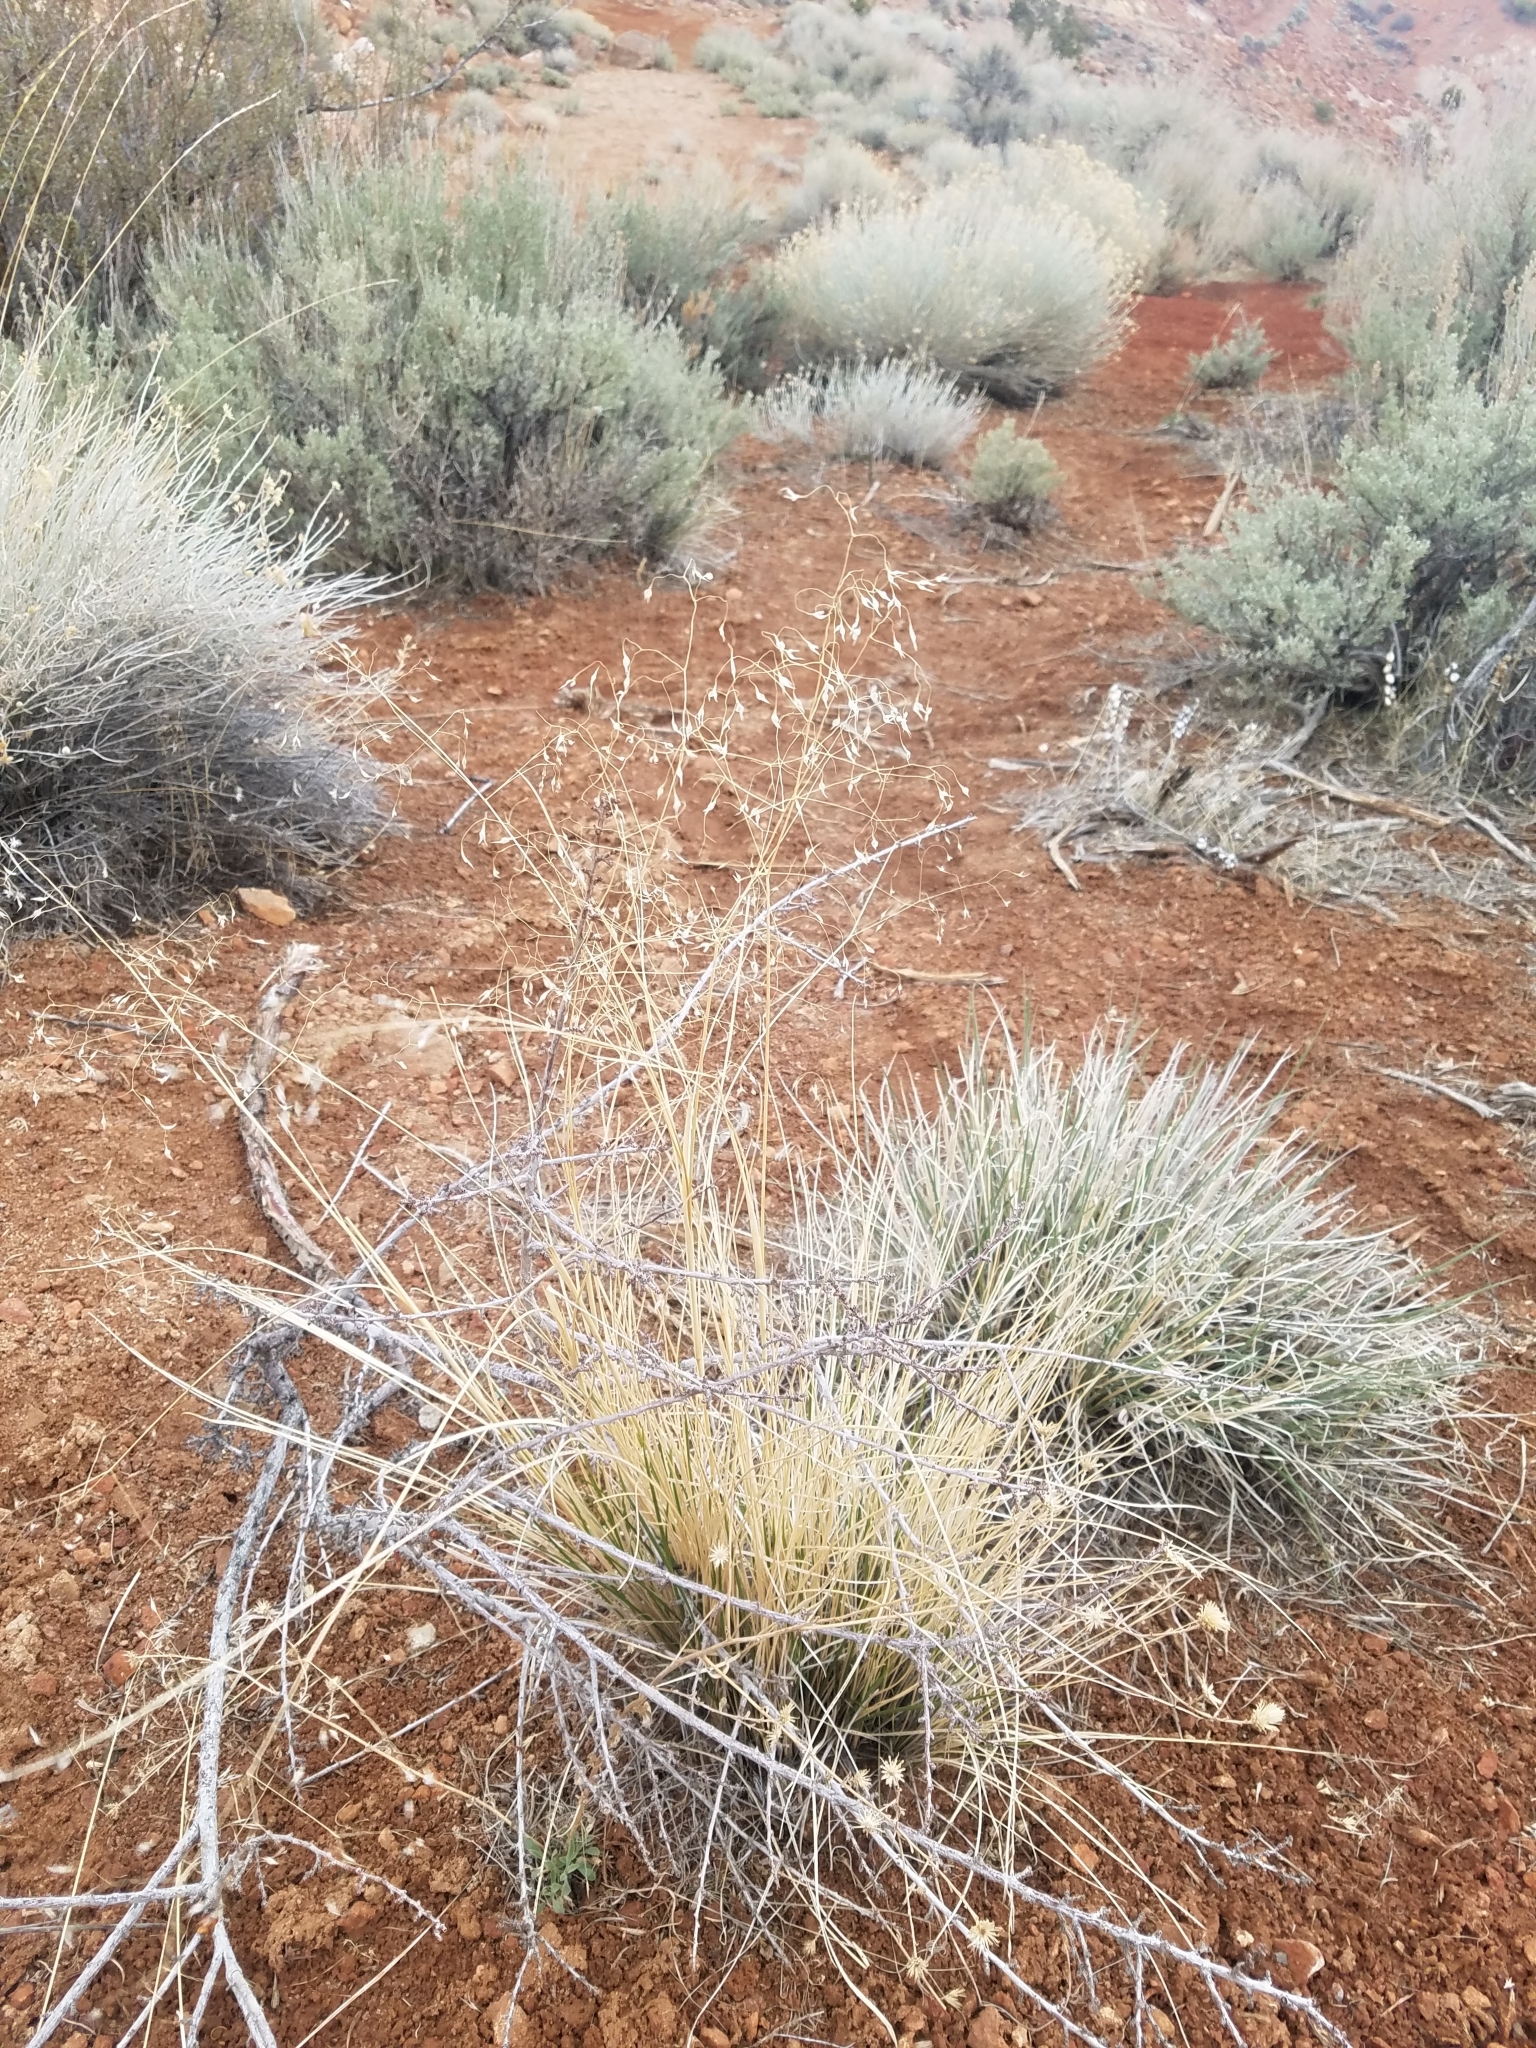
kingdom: Plantae
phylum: Tracheophyta
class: Liliopsida
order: Poales
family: Poaceae
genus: Eriocoma
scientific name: Eriocoma hymenoides
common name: Indian mountain ricegrass
